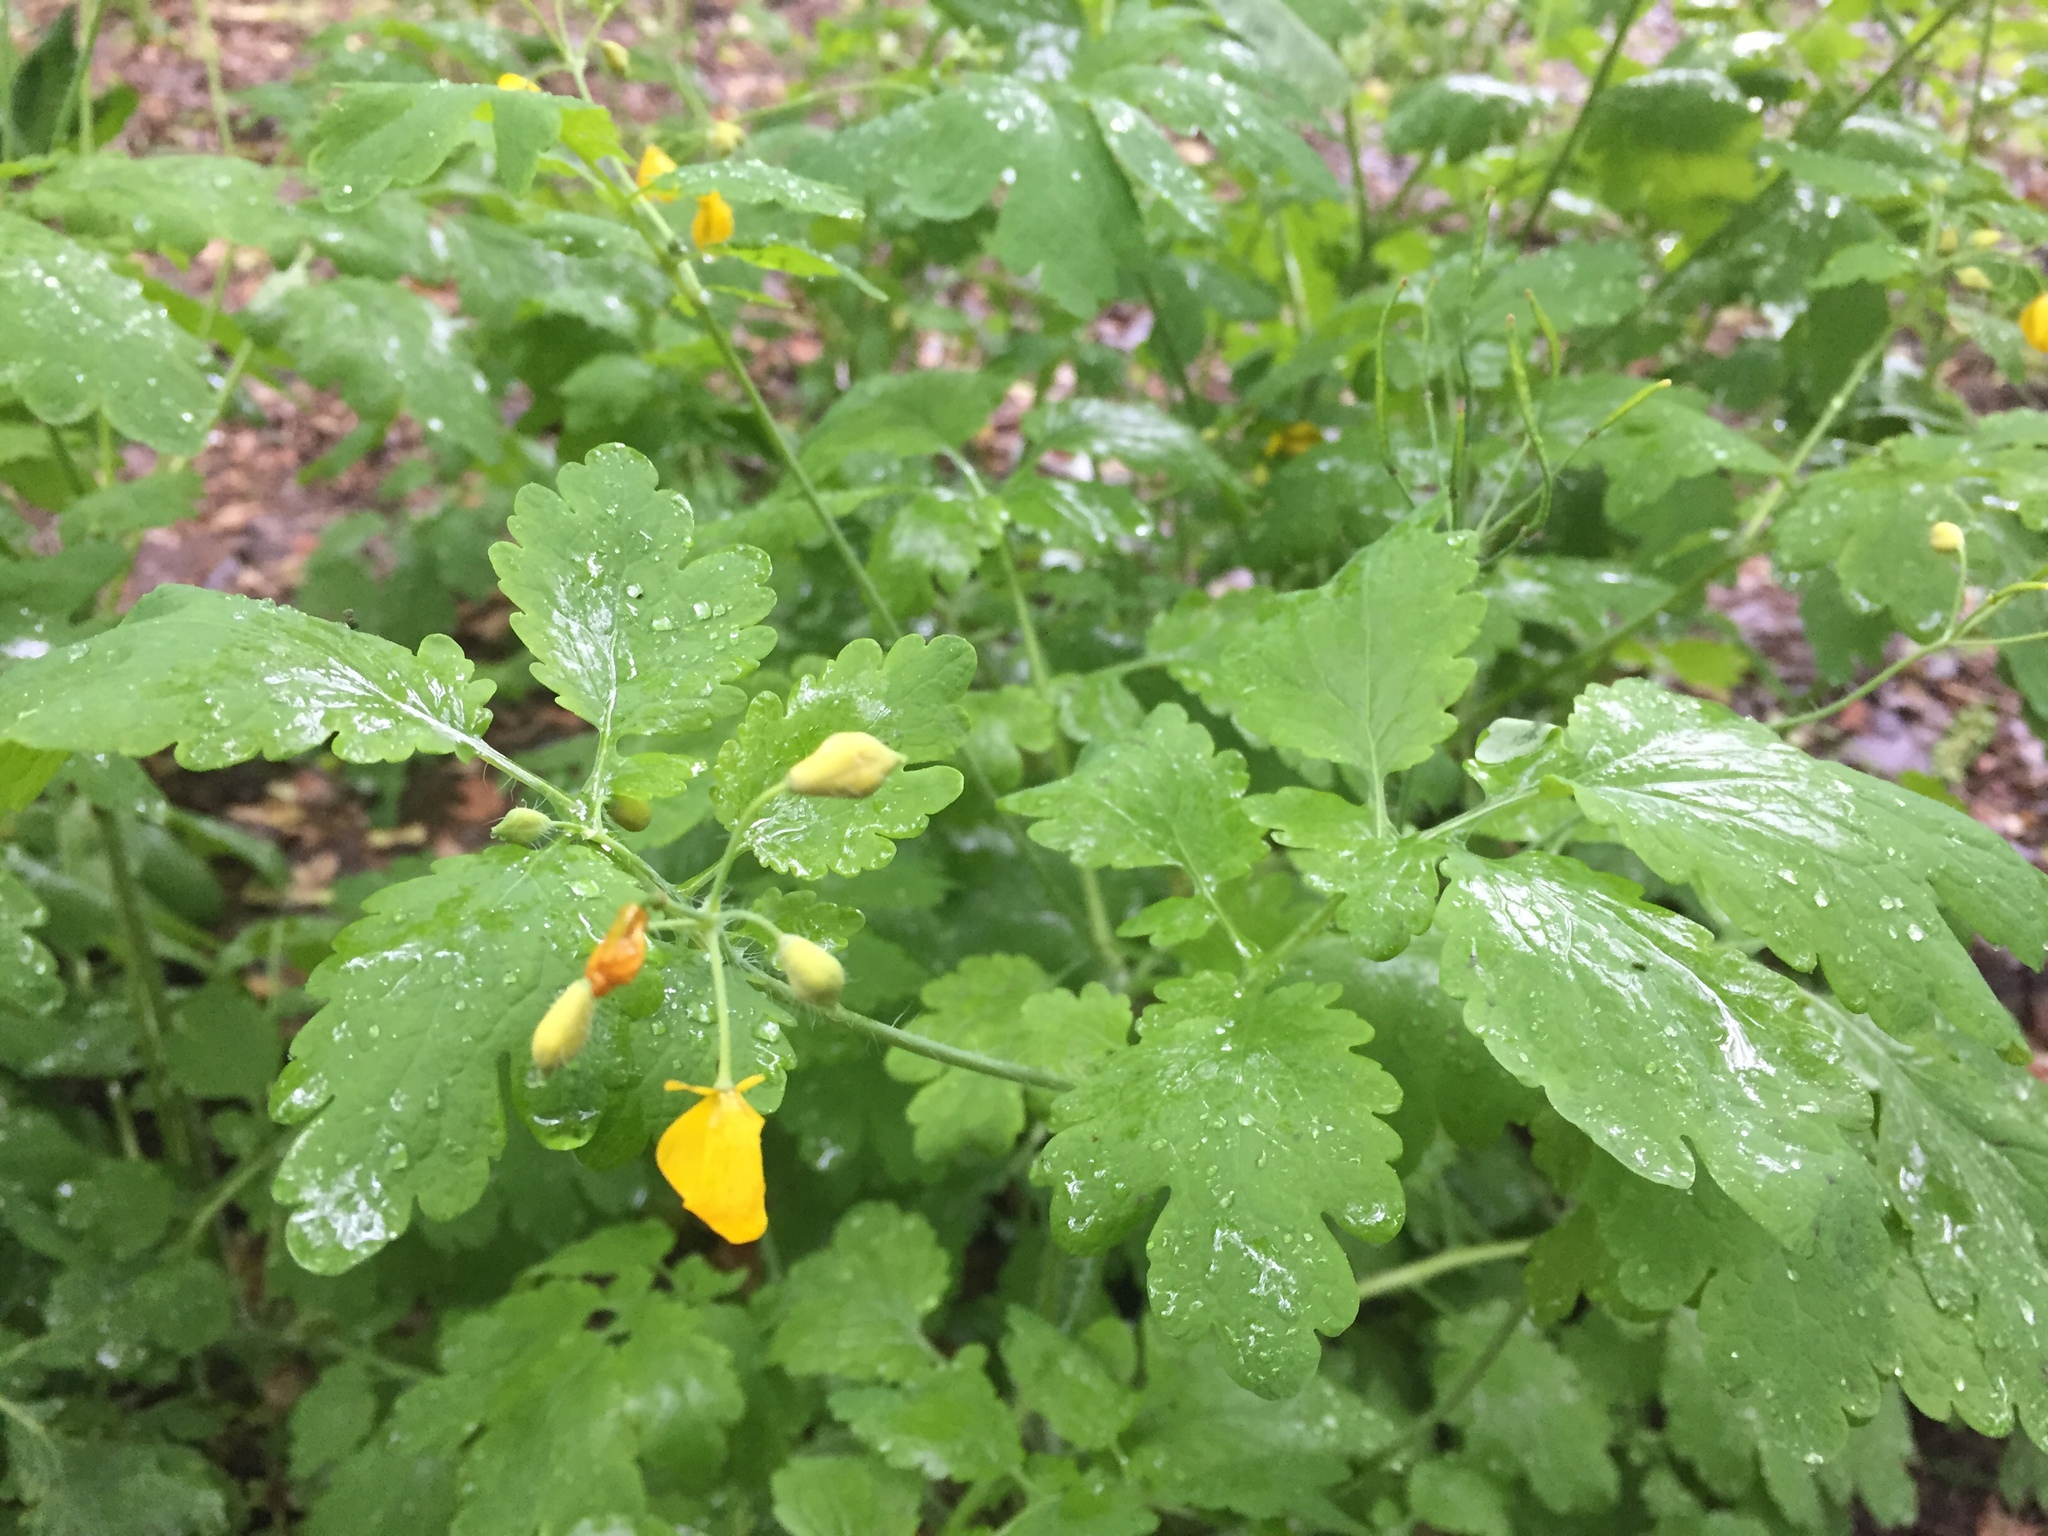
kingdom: Plantae
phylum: Tracheophyta
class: Magnoliopsida
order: Ranunculales
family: Papaveraceae
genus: Chelidonium
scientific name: Chelidonium majus
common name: Greater celandine
